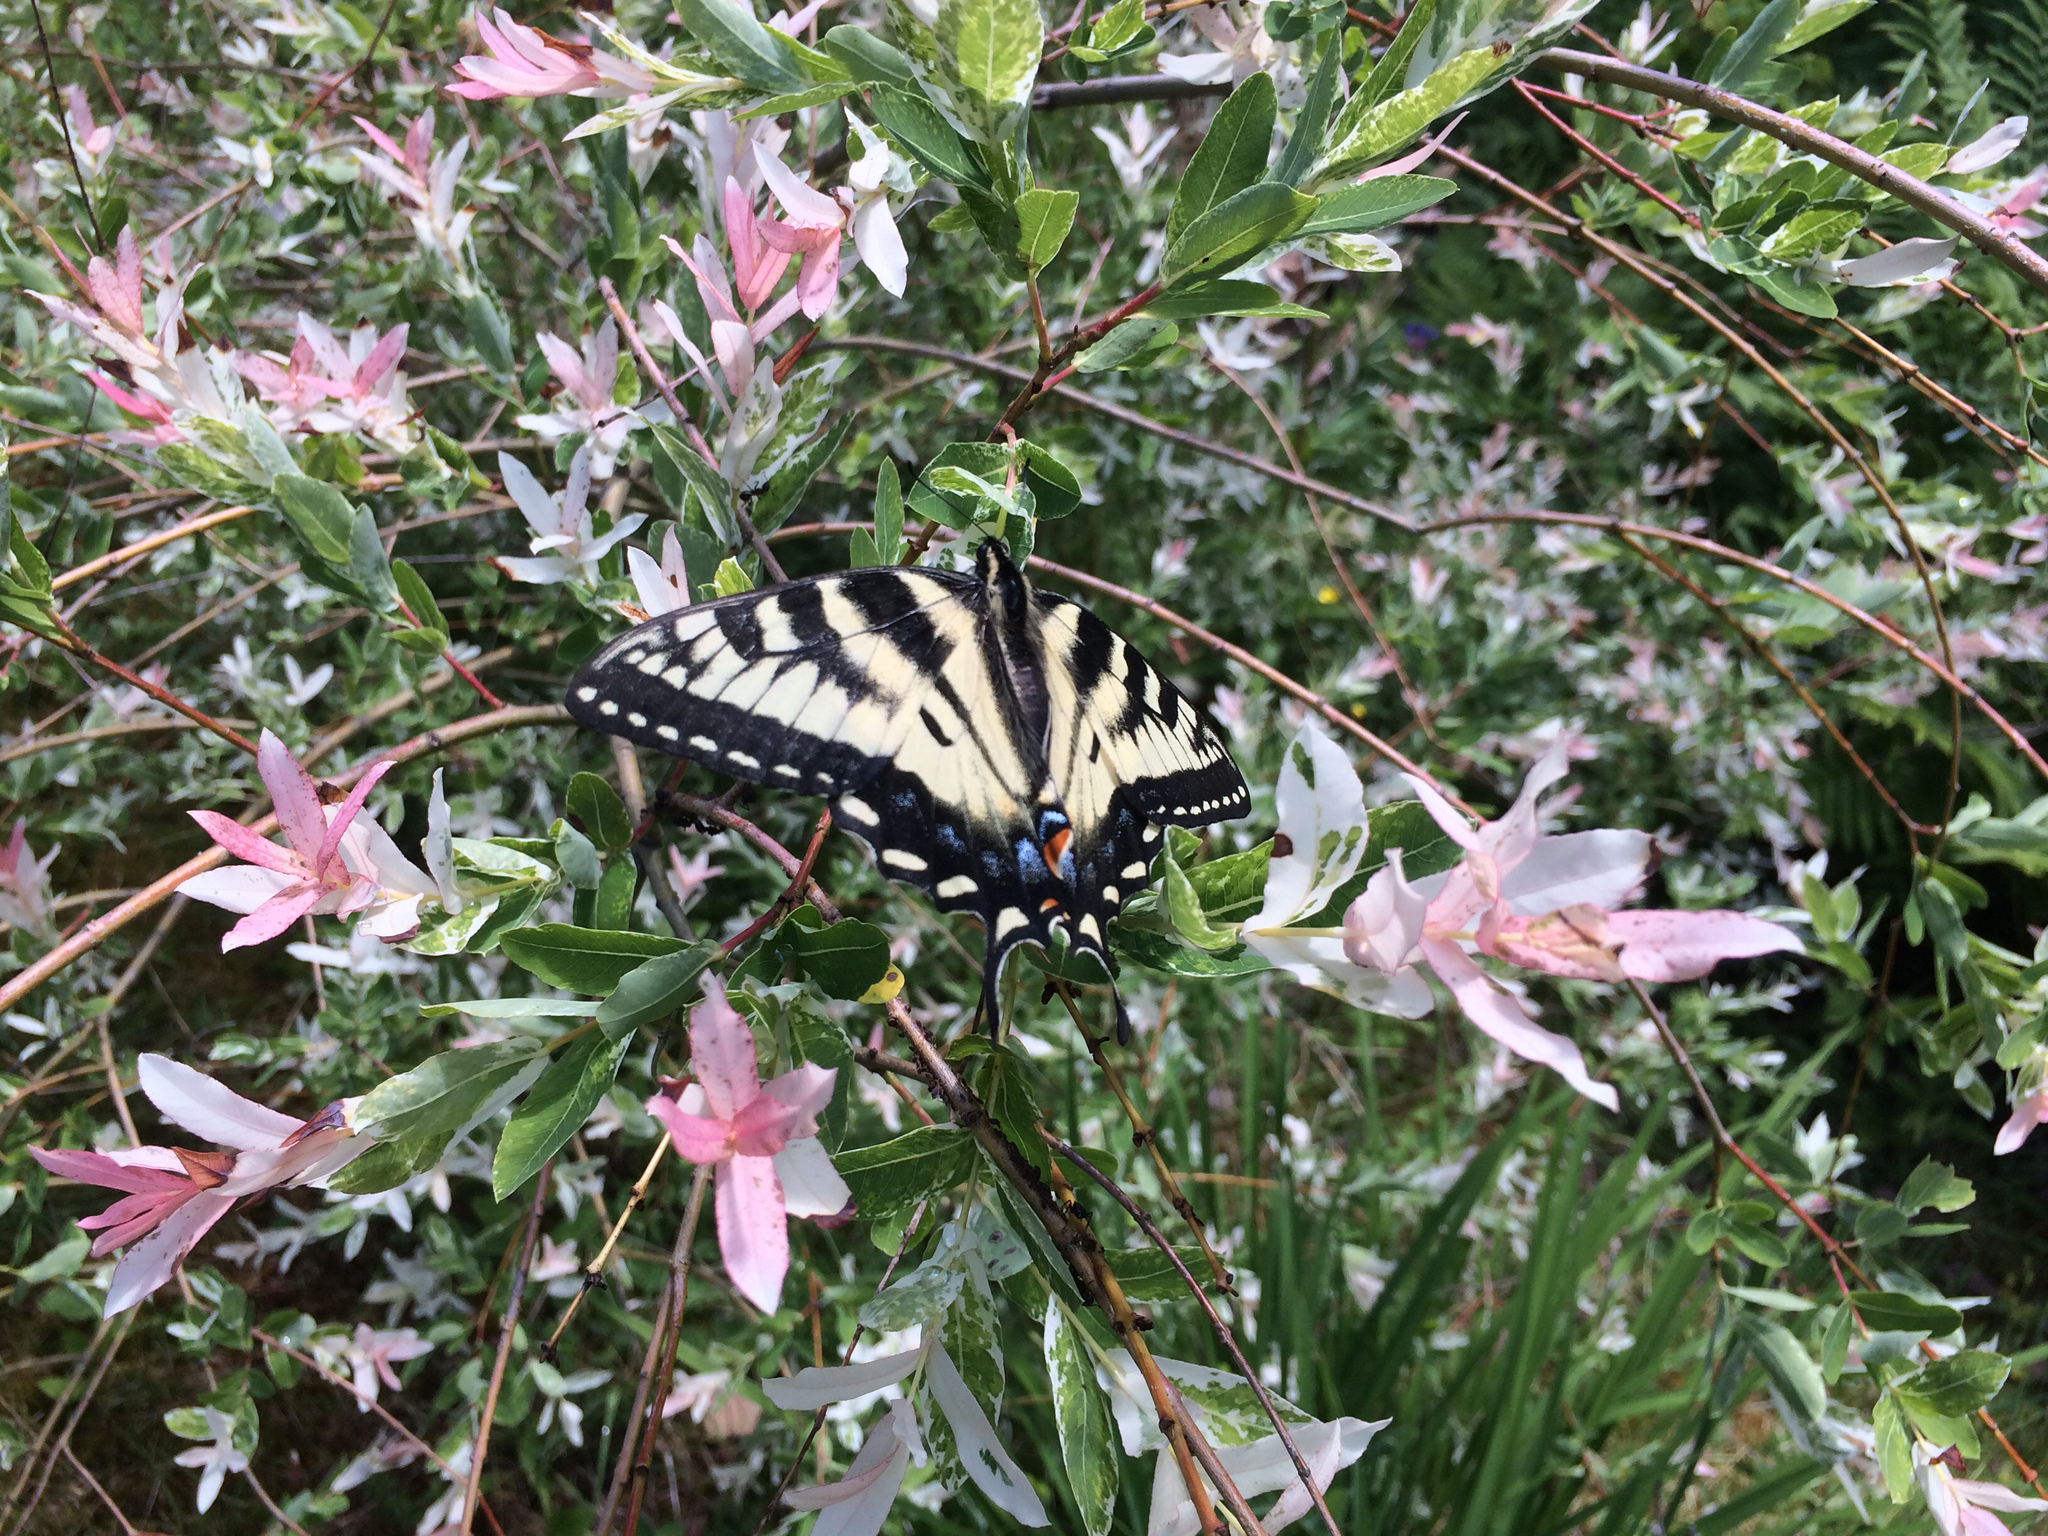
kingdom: Animalia
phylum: Arthropoda
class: Insecta
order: Lepidoptera
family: Papilionidae
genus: Papilio
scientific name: Papilio canadensis
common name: Canadian tiger swallowtail
